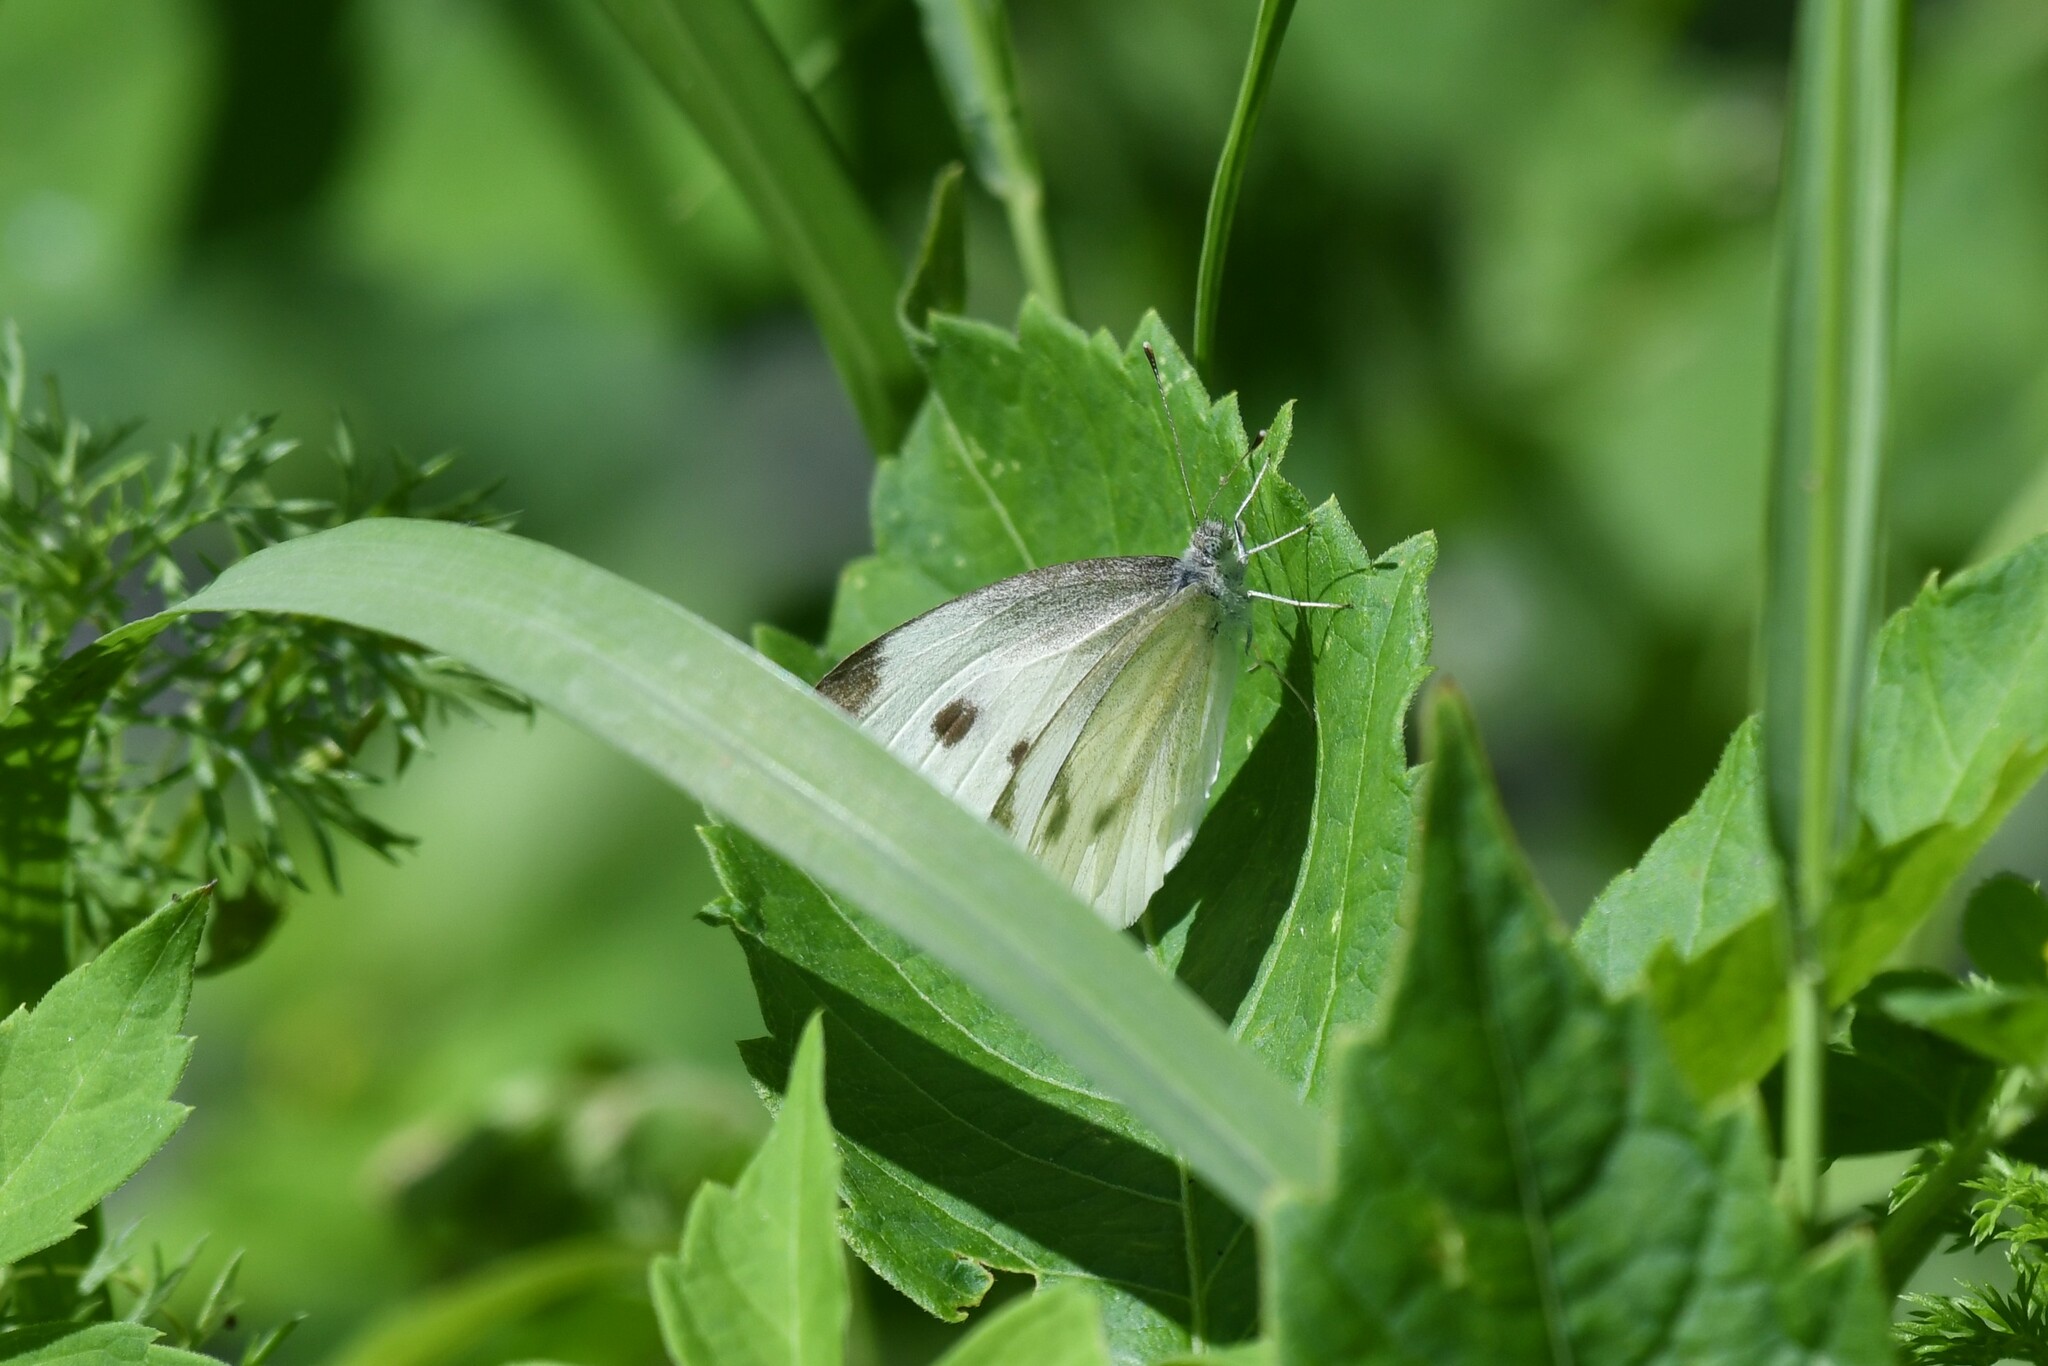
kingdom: Animalia
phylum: Arthropoda
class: Insecta
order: Lepidoptera
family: Pieridae
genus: Pieris
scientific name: Pieris rapae
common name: Small white
